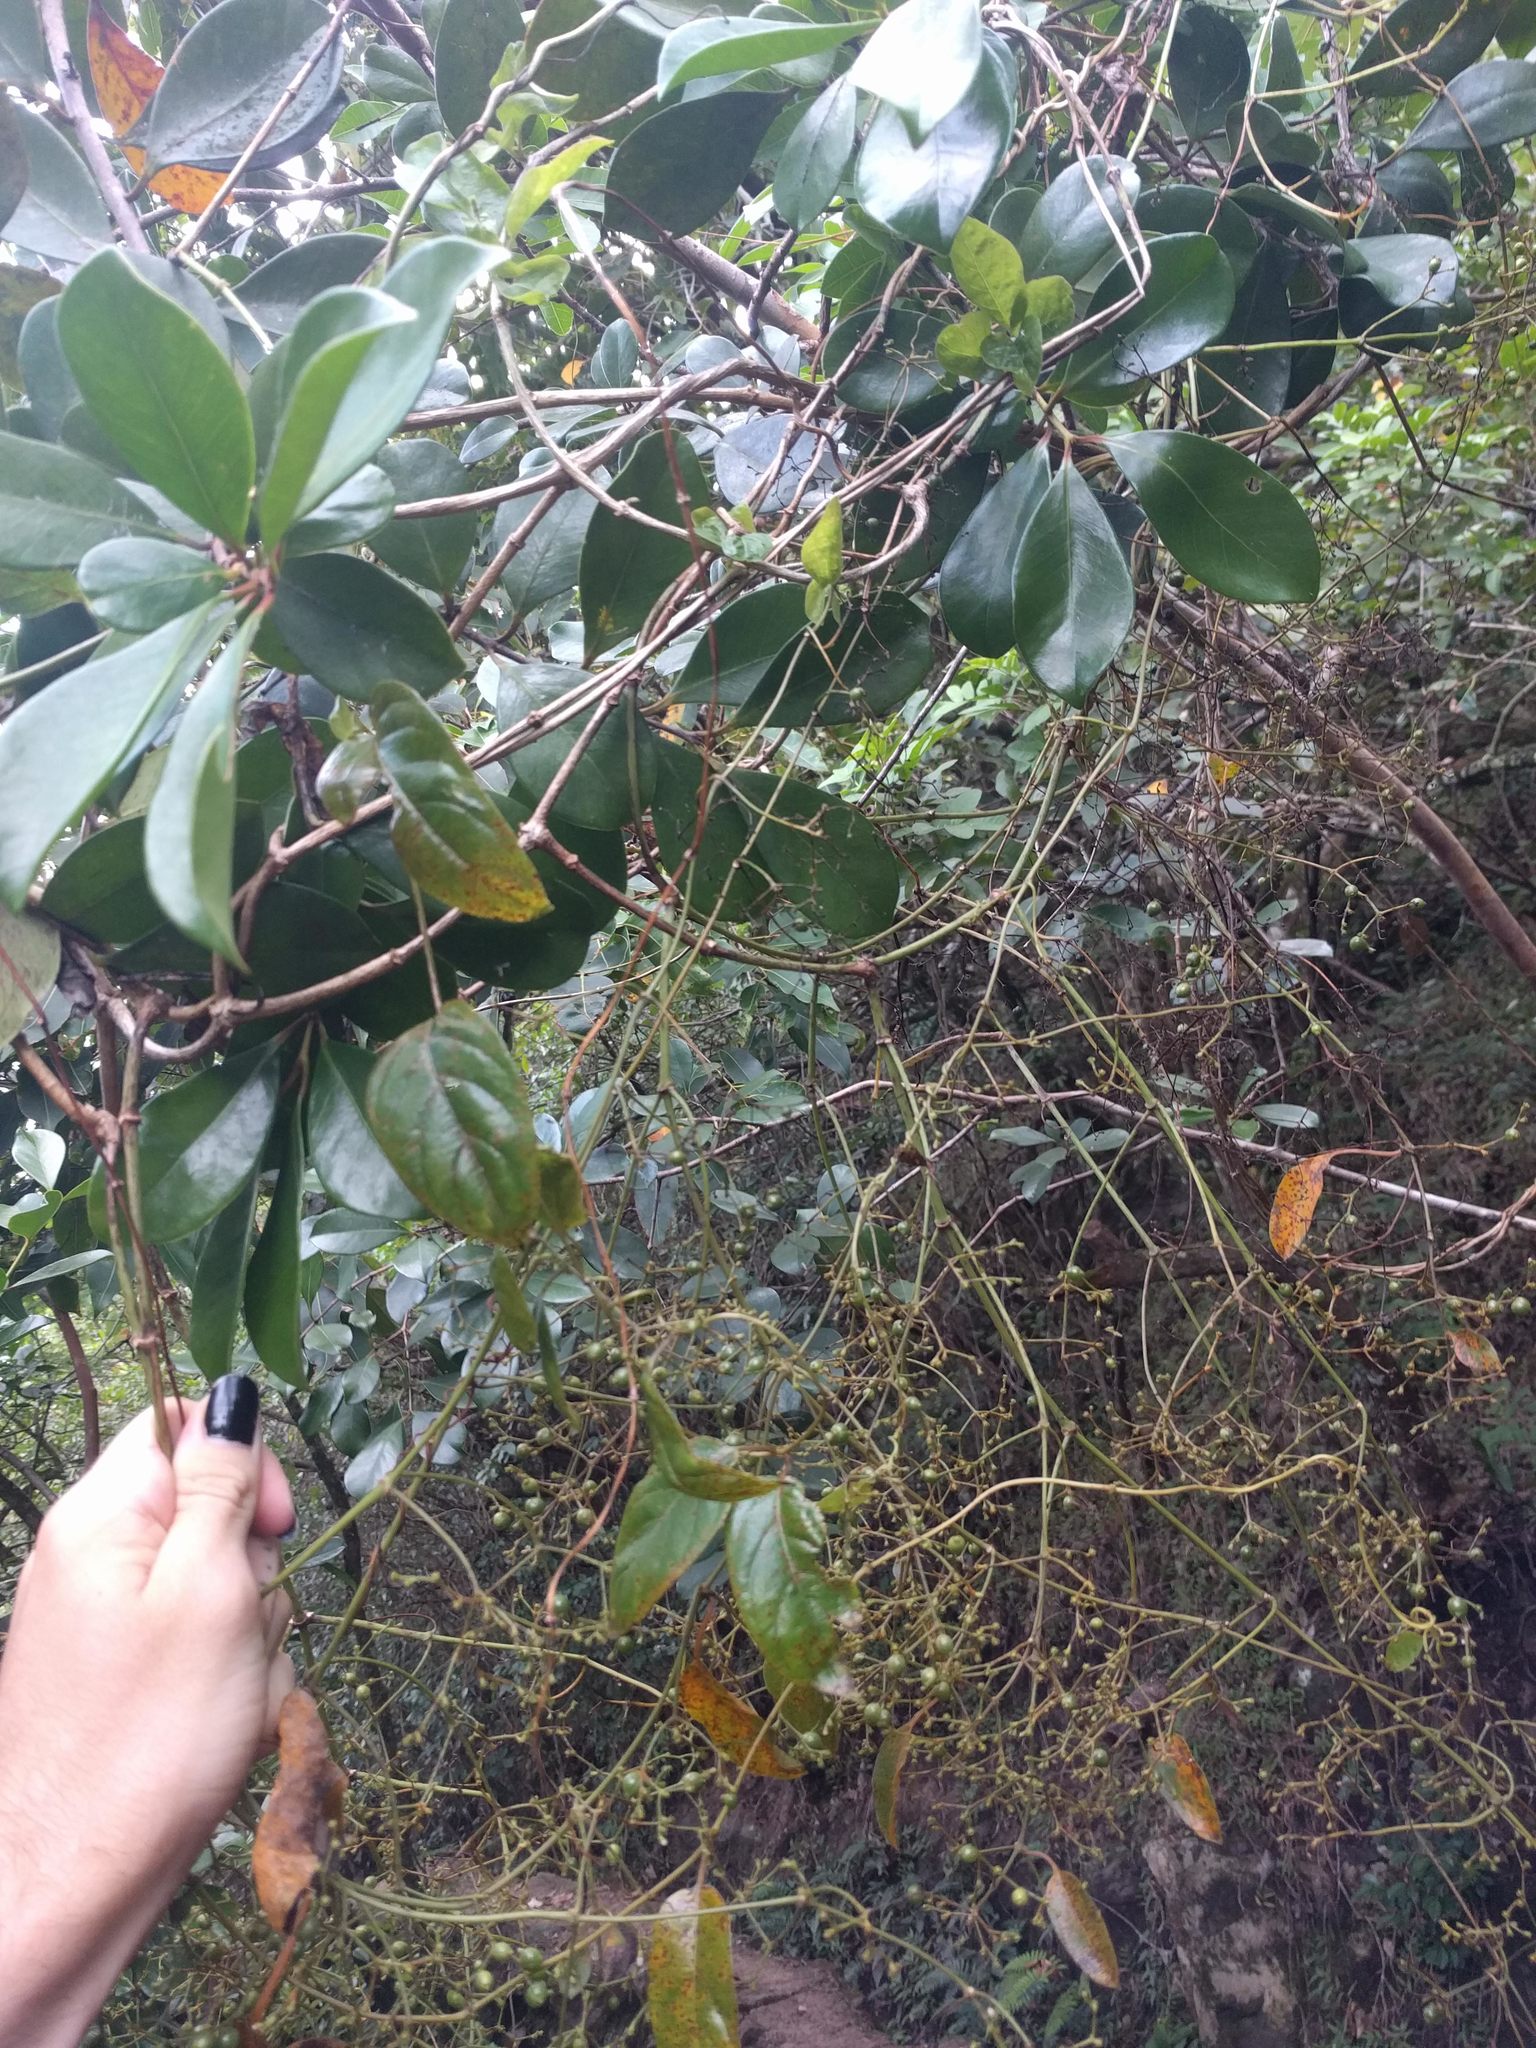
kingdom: Plantae
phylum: Tracheophyta
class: Magnoliopsida
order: Gentianales
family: Rubiaceae
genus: Paederia
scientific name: Paederia foetida
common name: Stinkvine
